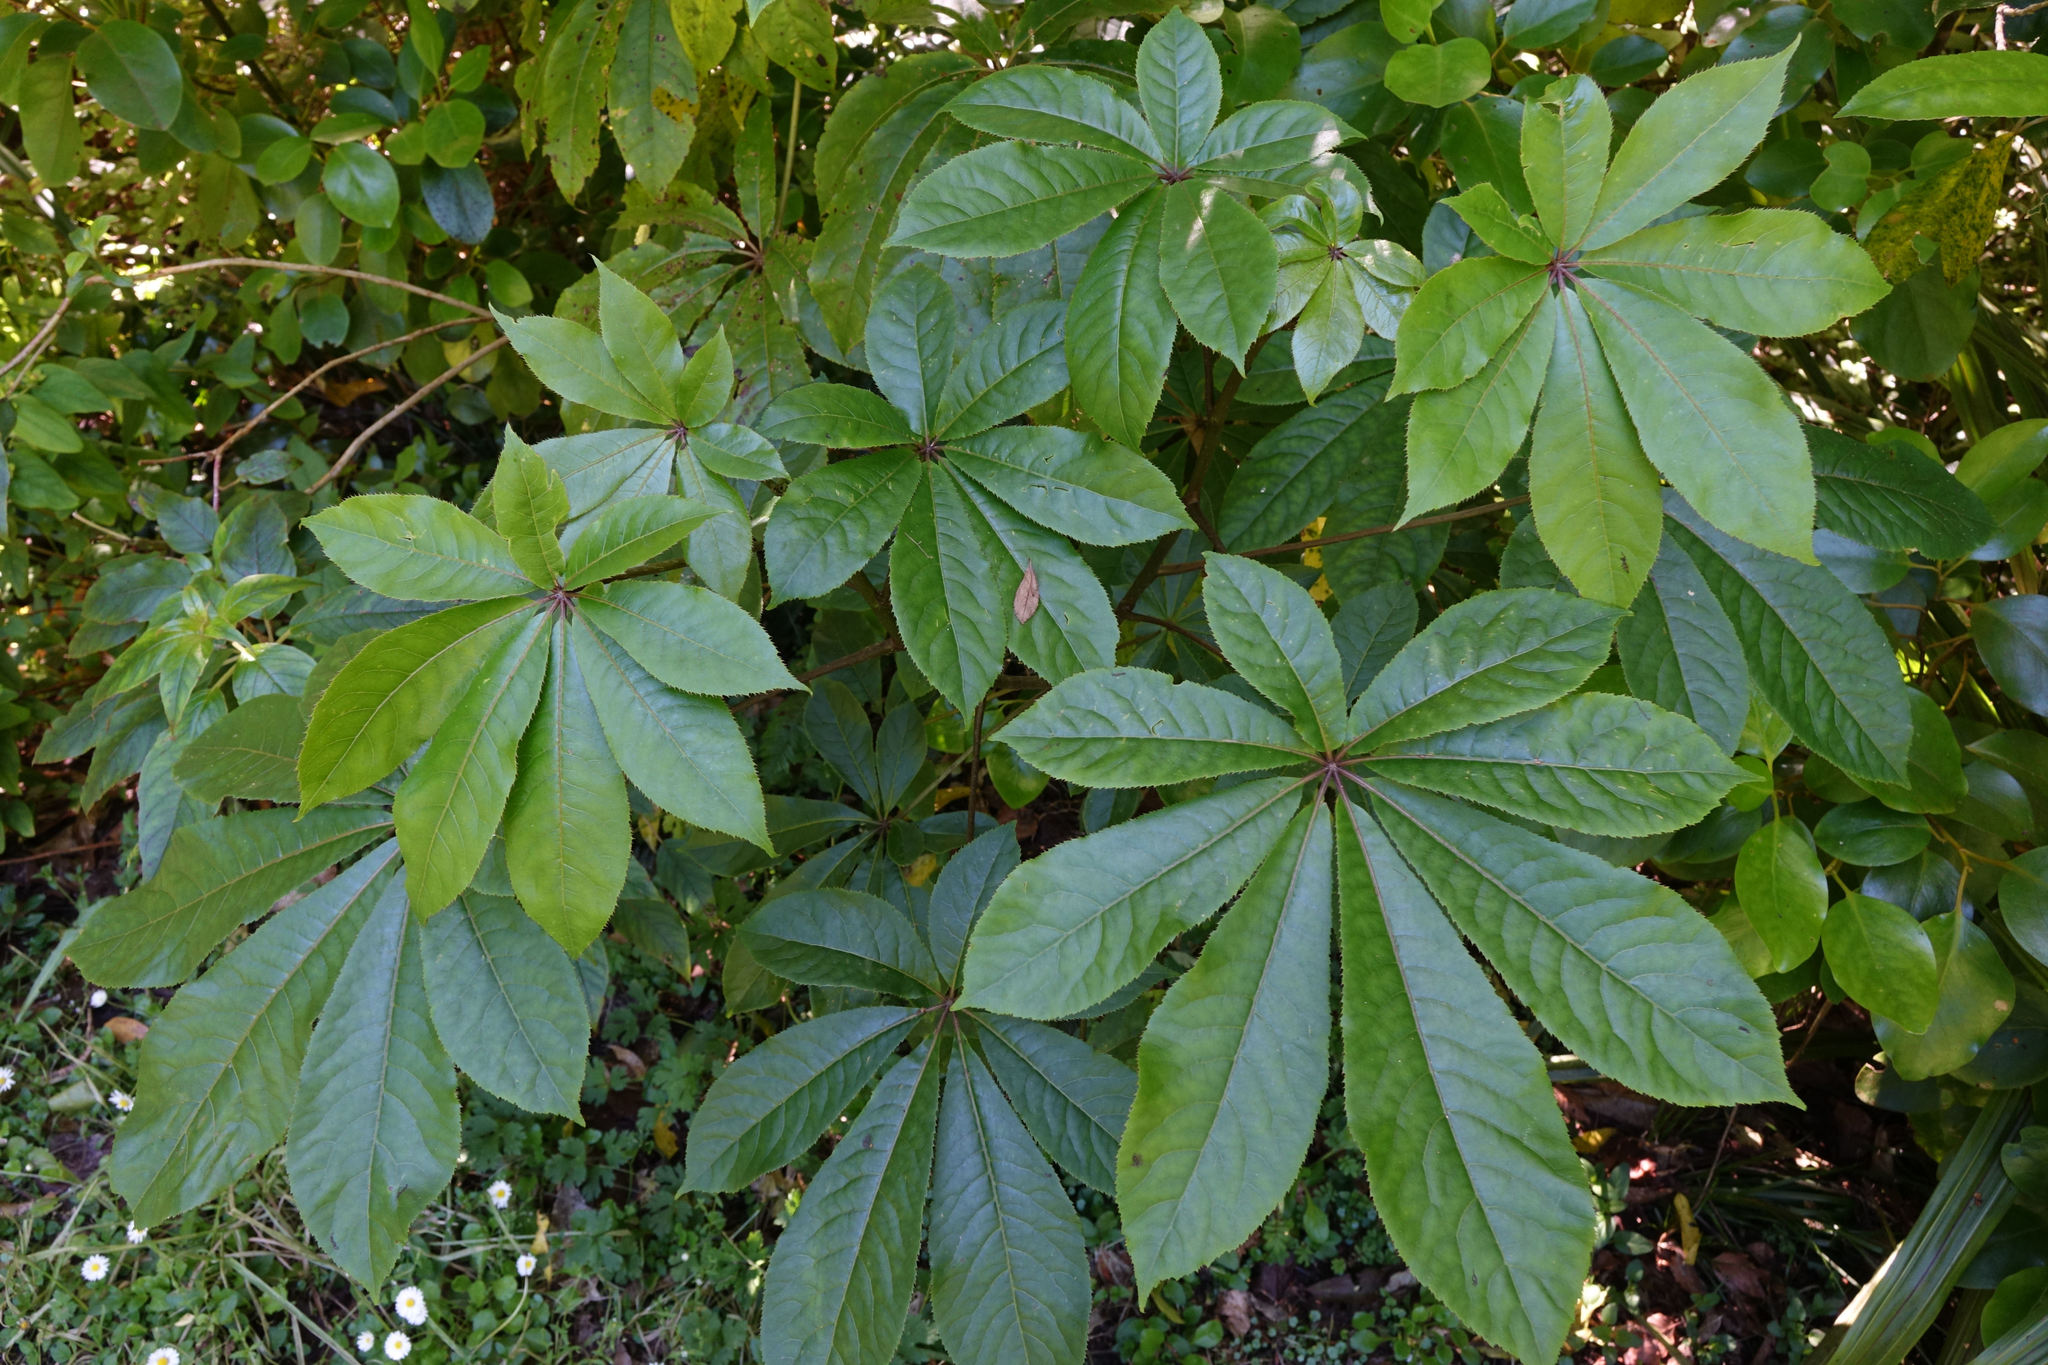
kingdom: Plantae
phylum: Tracheophyta
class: Magnoliopsida
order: Apiales
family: Araliaceae
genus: Schefflera
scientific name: Schefflera digitata
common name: Pate
